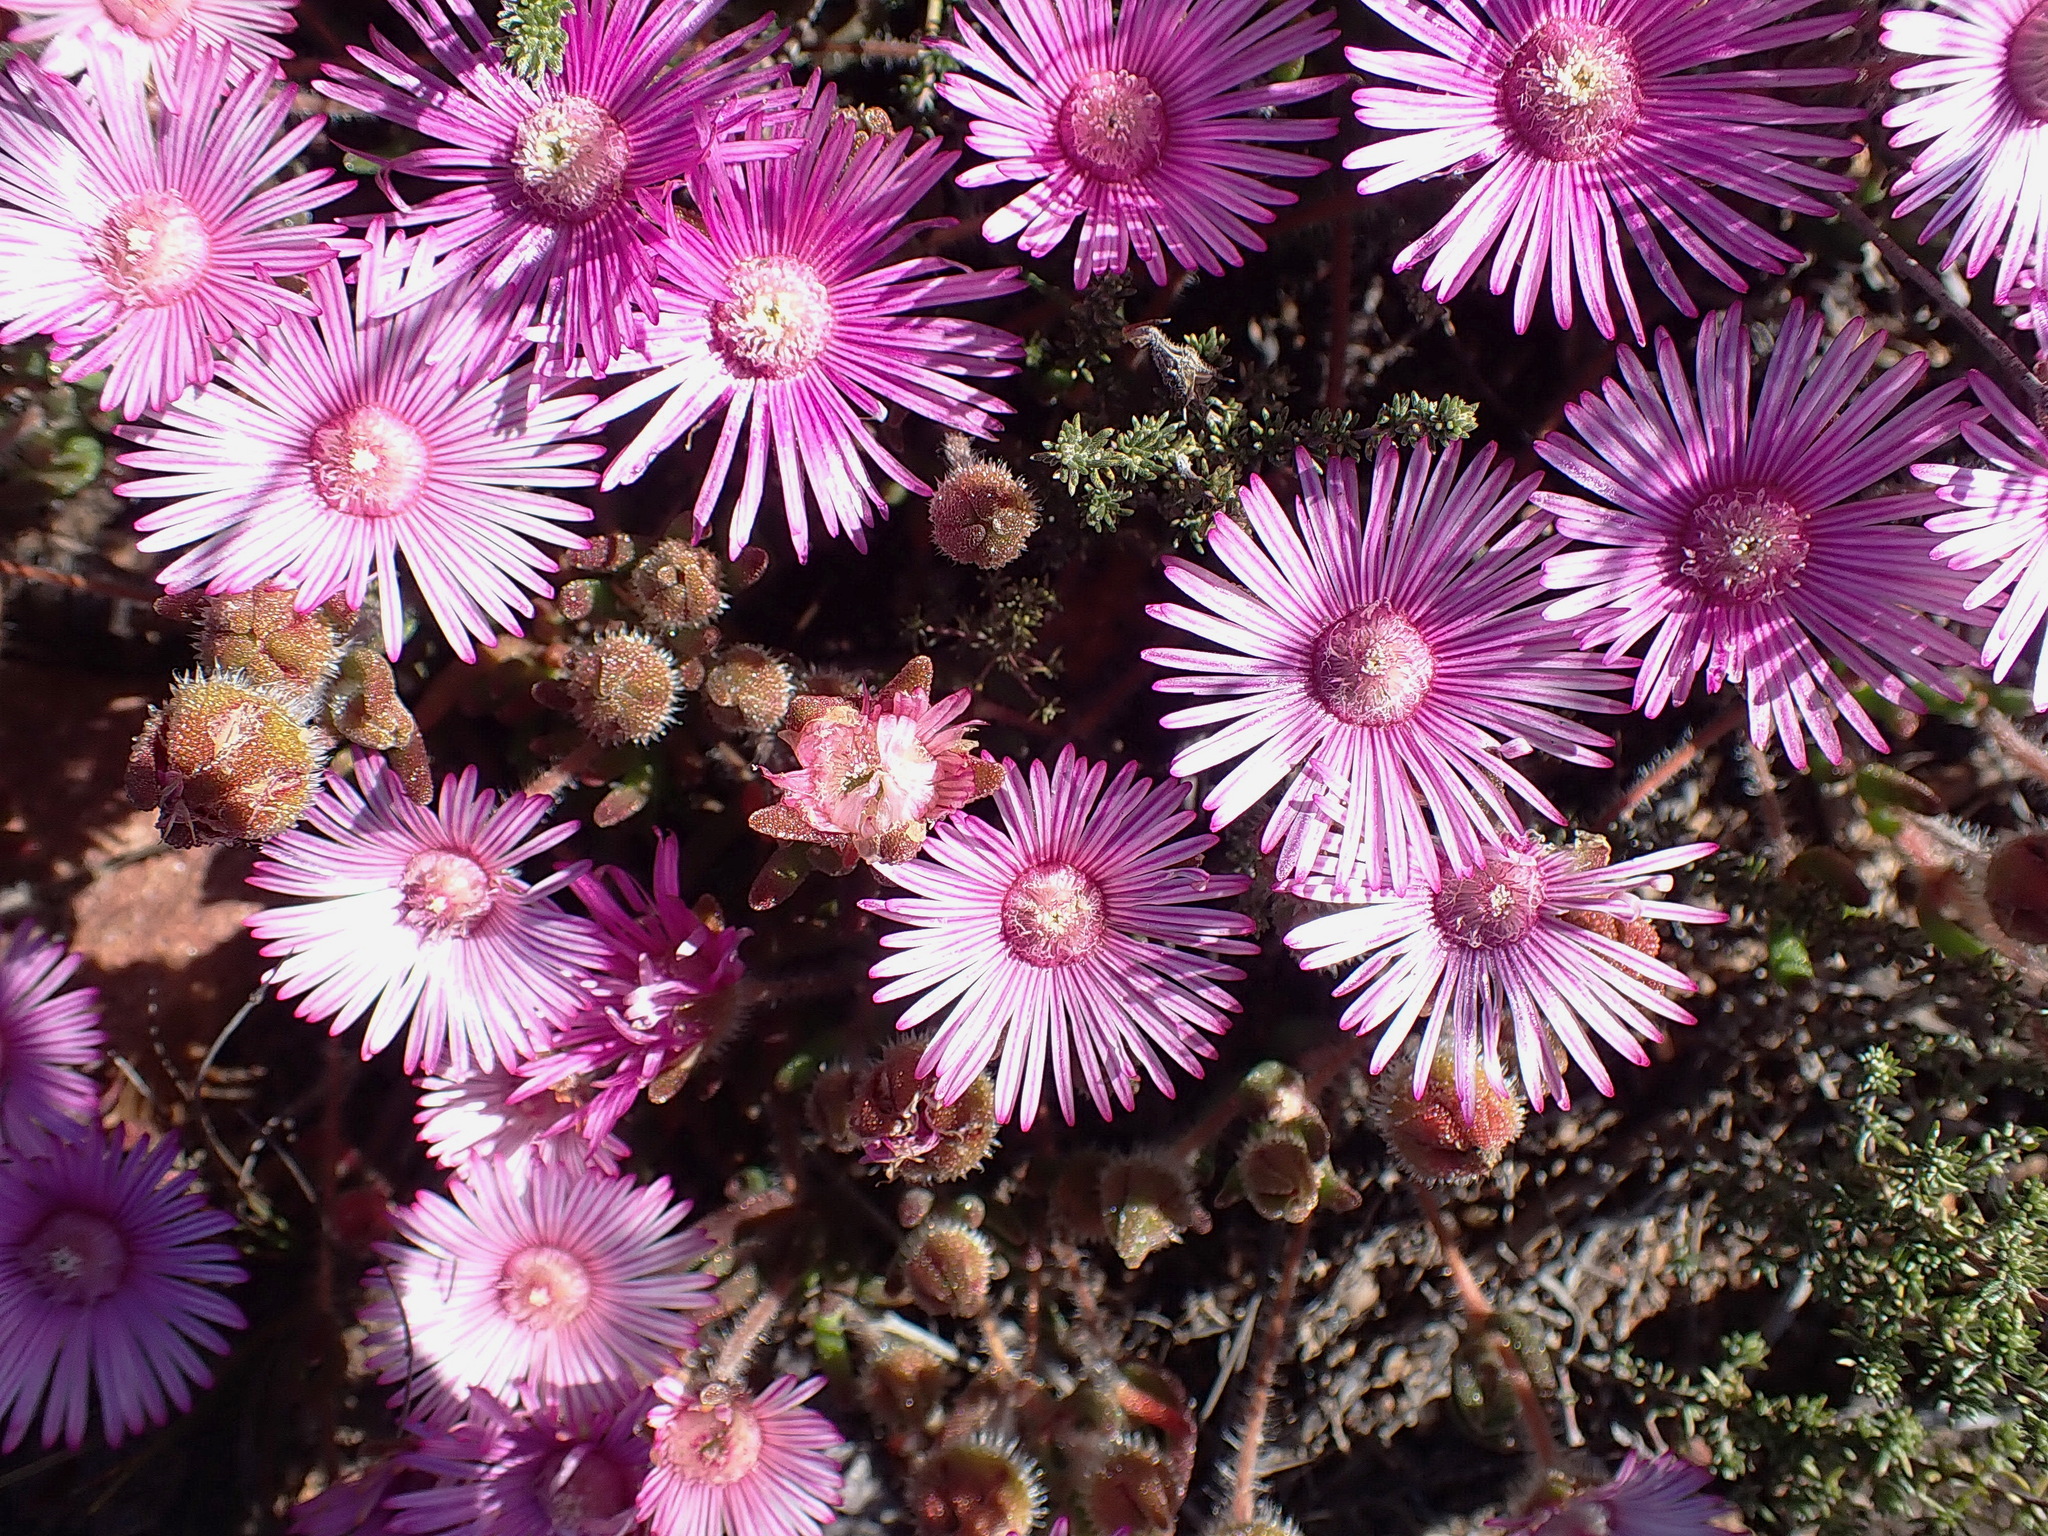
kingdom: Plantae
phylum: Tracheophyta
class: Magnoliopsida
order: Caryophyllales
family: Aizoaceae
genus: Drosanthemum
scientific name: Drosanthemum striatum
